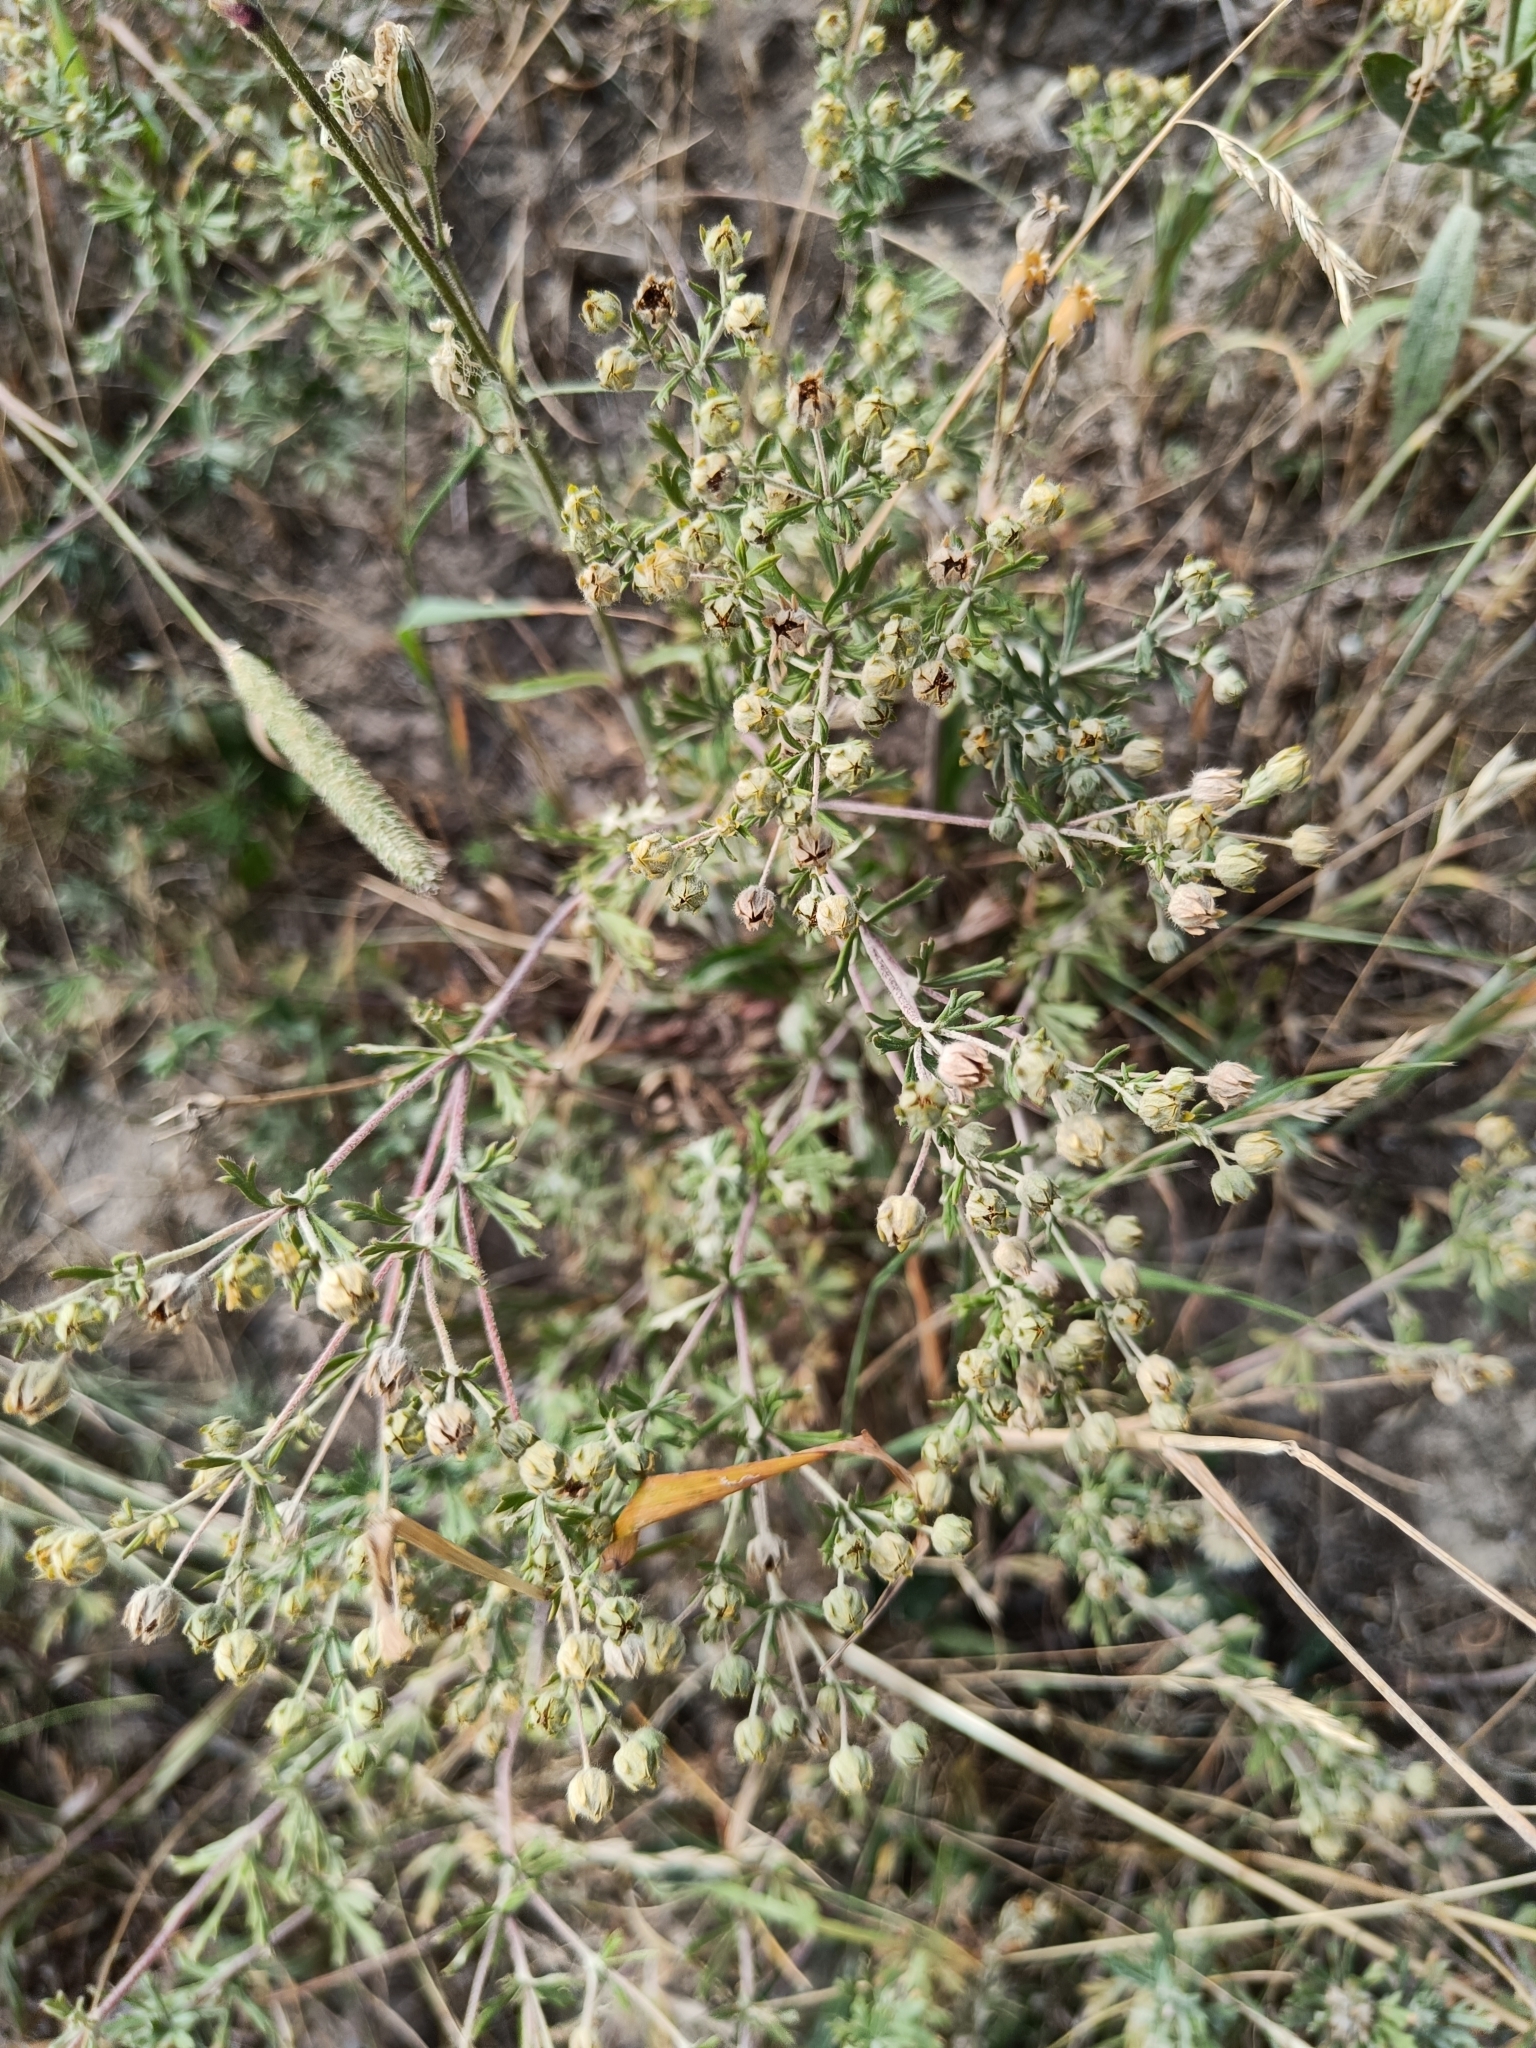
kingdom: Plantae
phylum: Tracheophyta
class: Magnoliopsida
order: Rosales
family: Rosaceae
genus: Potentilla
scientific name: Potentilla argentea
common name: Hoary cinquefoil
